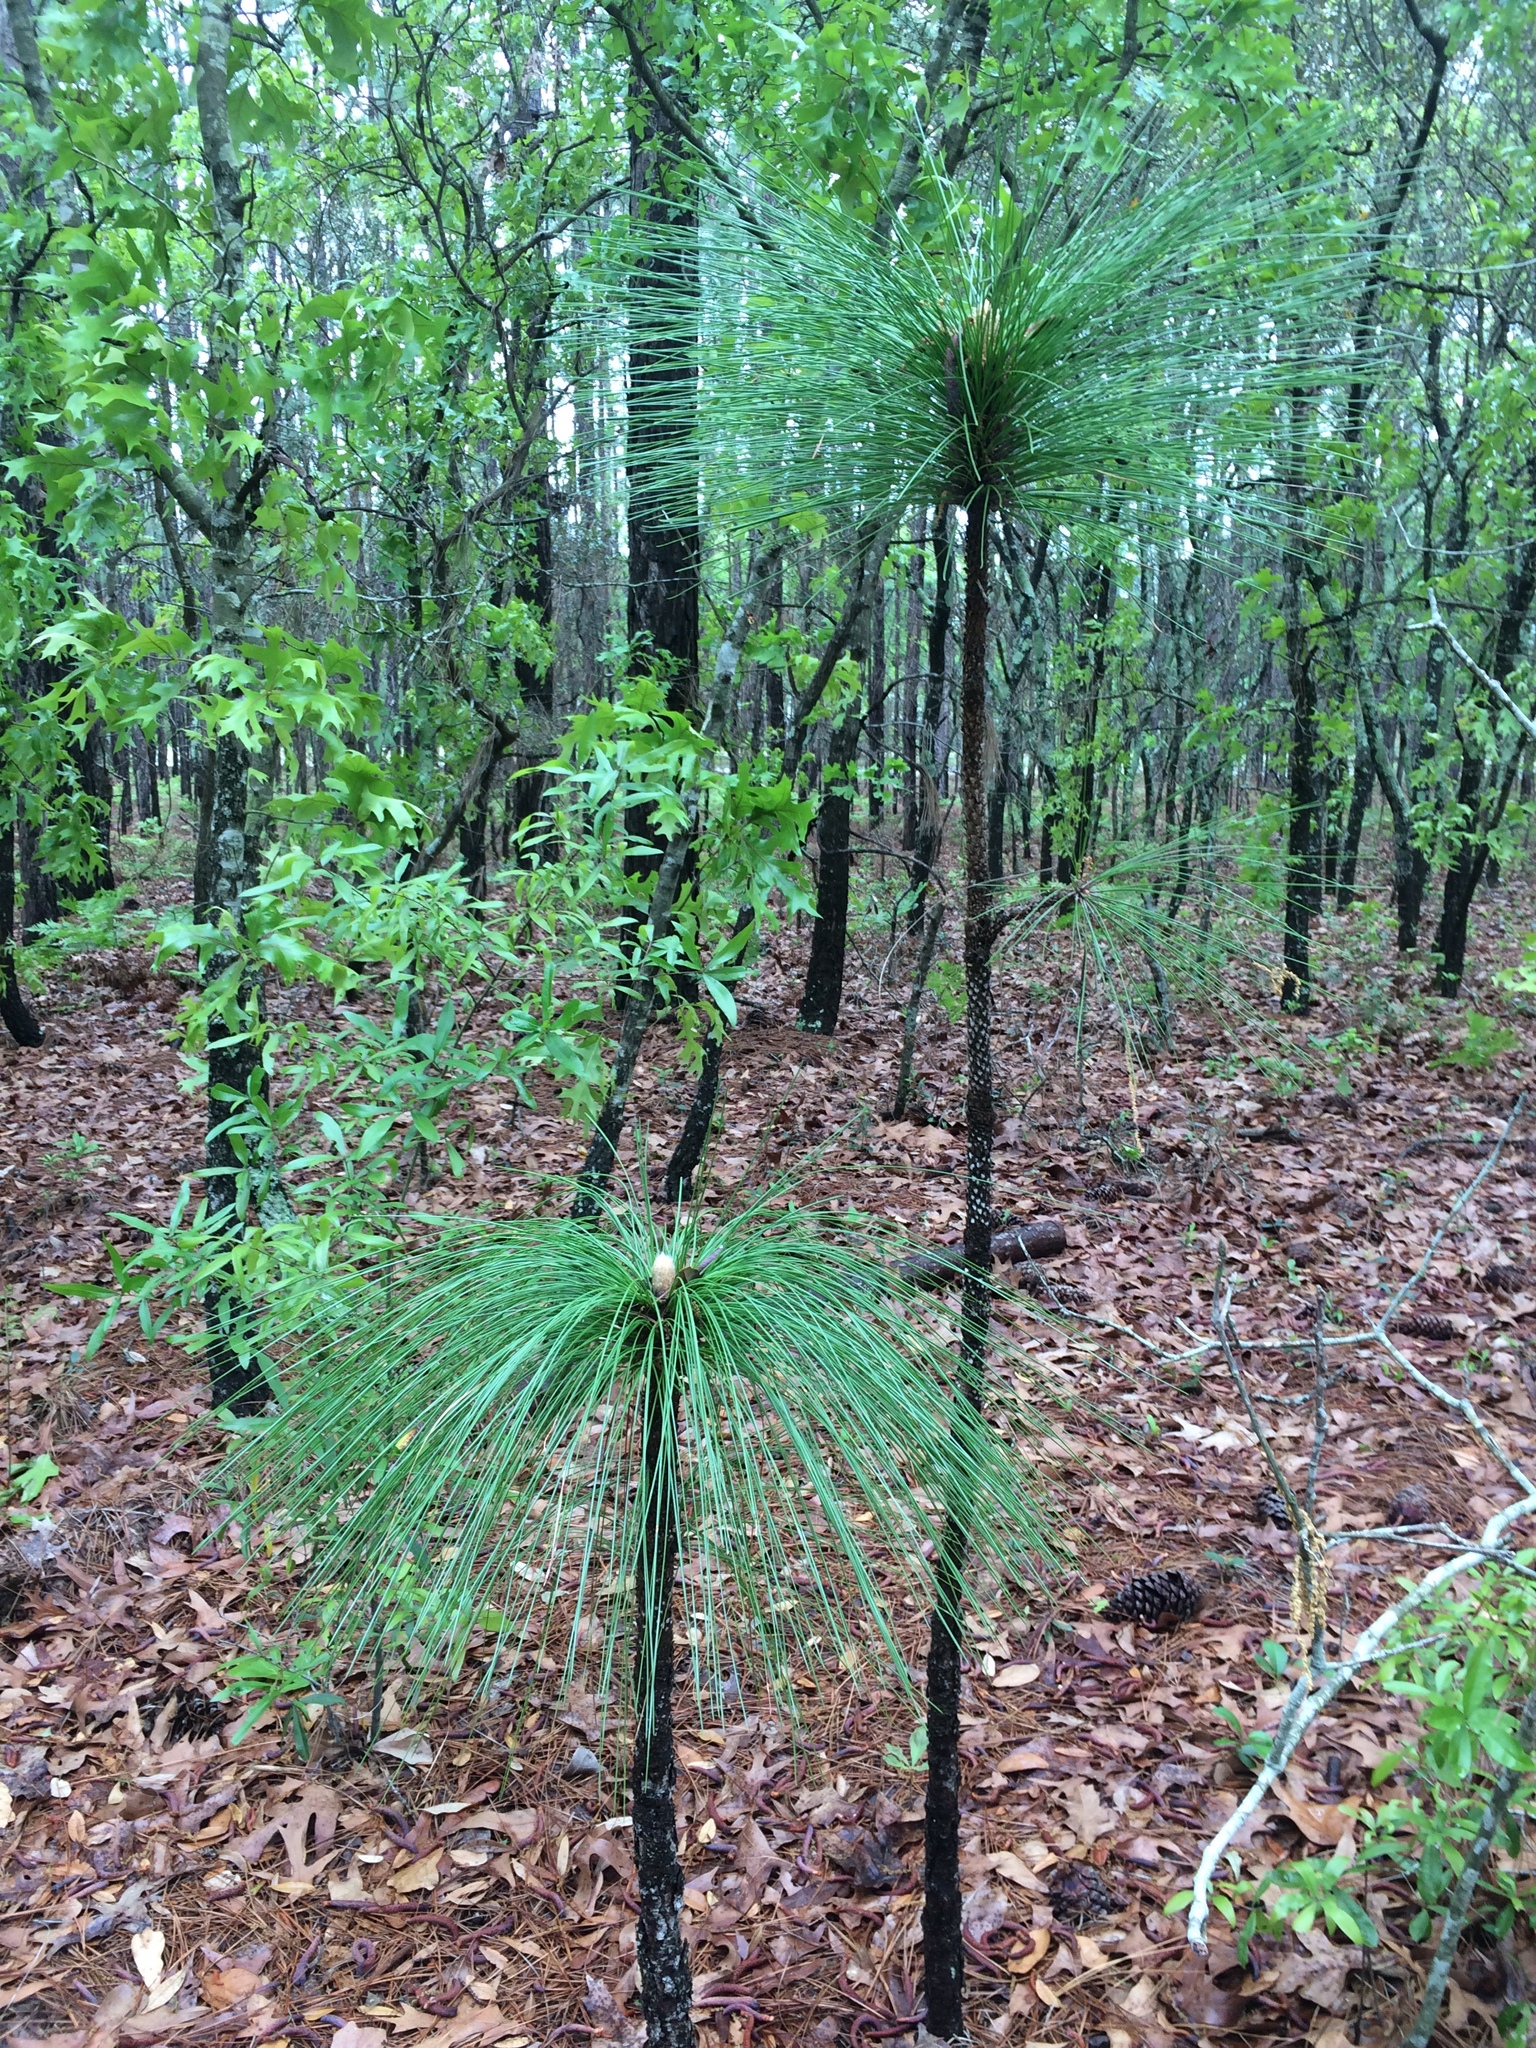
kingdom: Plantae
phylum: Tracheophyta
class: Pinopsida
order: Pinales
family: Pinaceae
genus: Pinus
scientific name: Pinus palustris
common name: Longleaf pine
